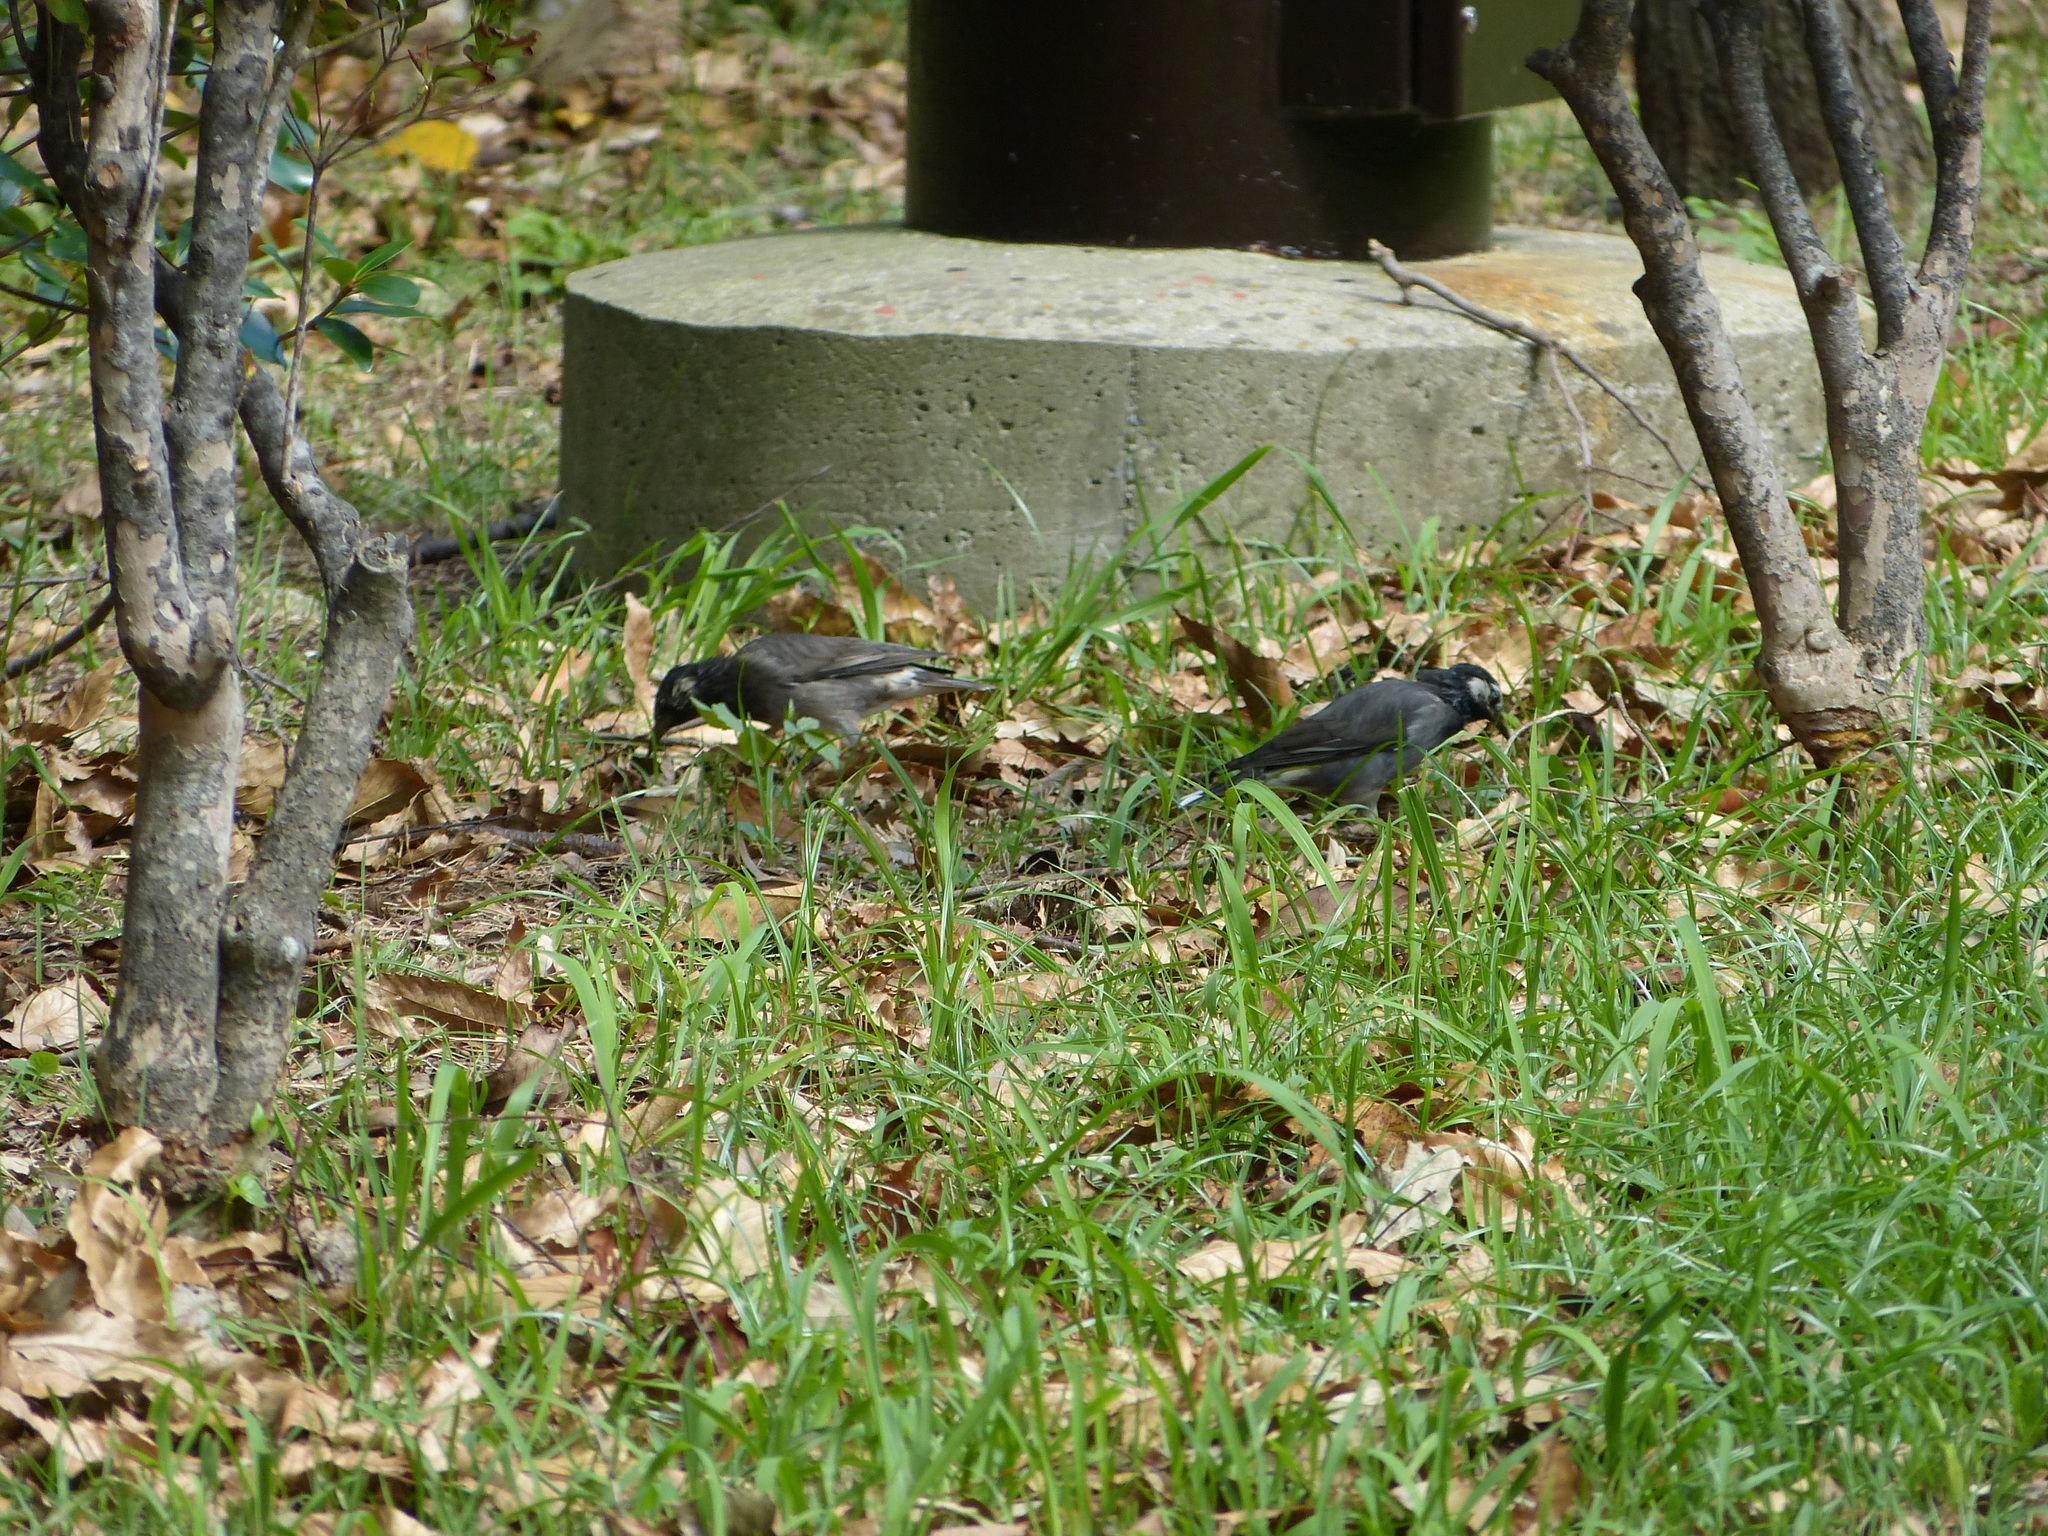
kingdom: Animalia
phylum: Chordata
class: Aves
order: Passeriformes
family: Sturnidae
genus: Spodiopsar
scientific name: Spodiopsar cineraceus
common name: White-cheeked starling
